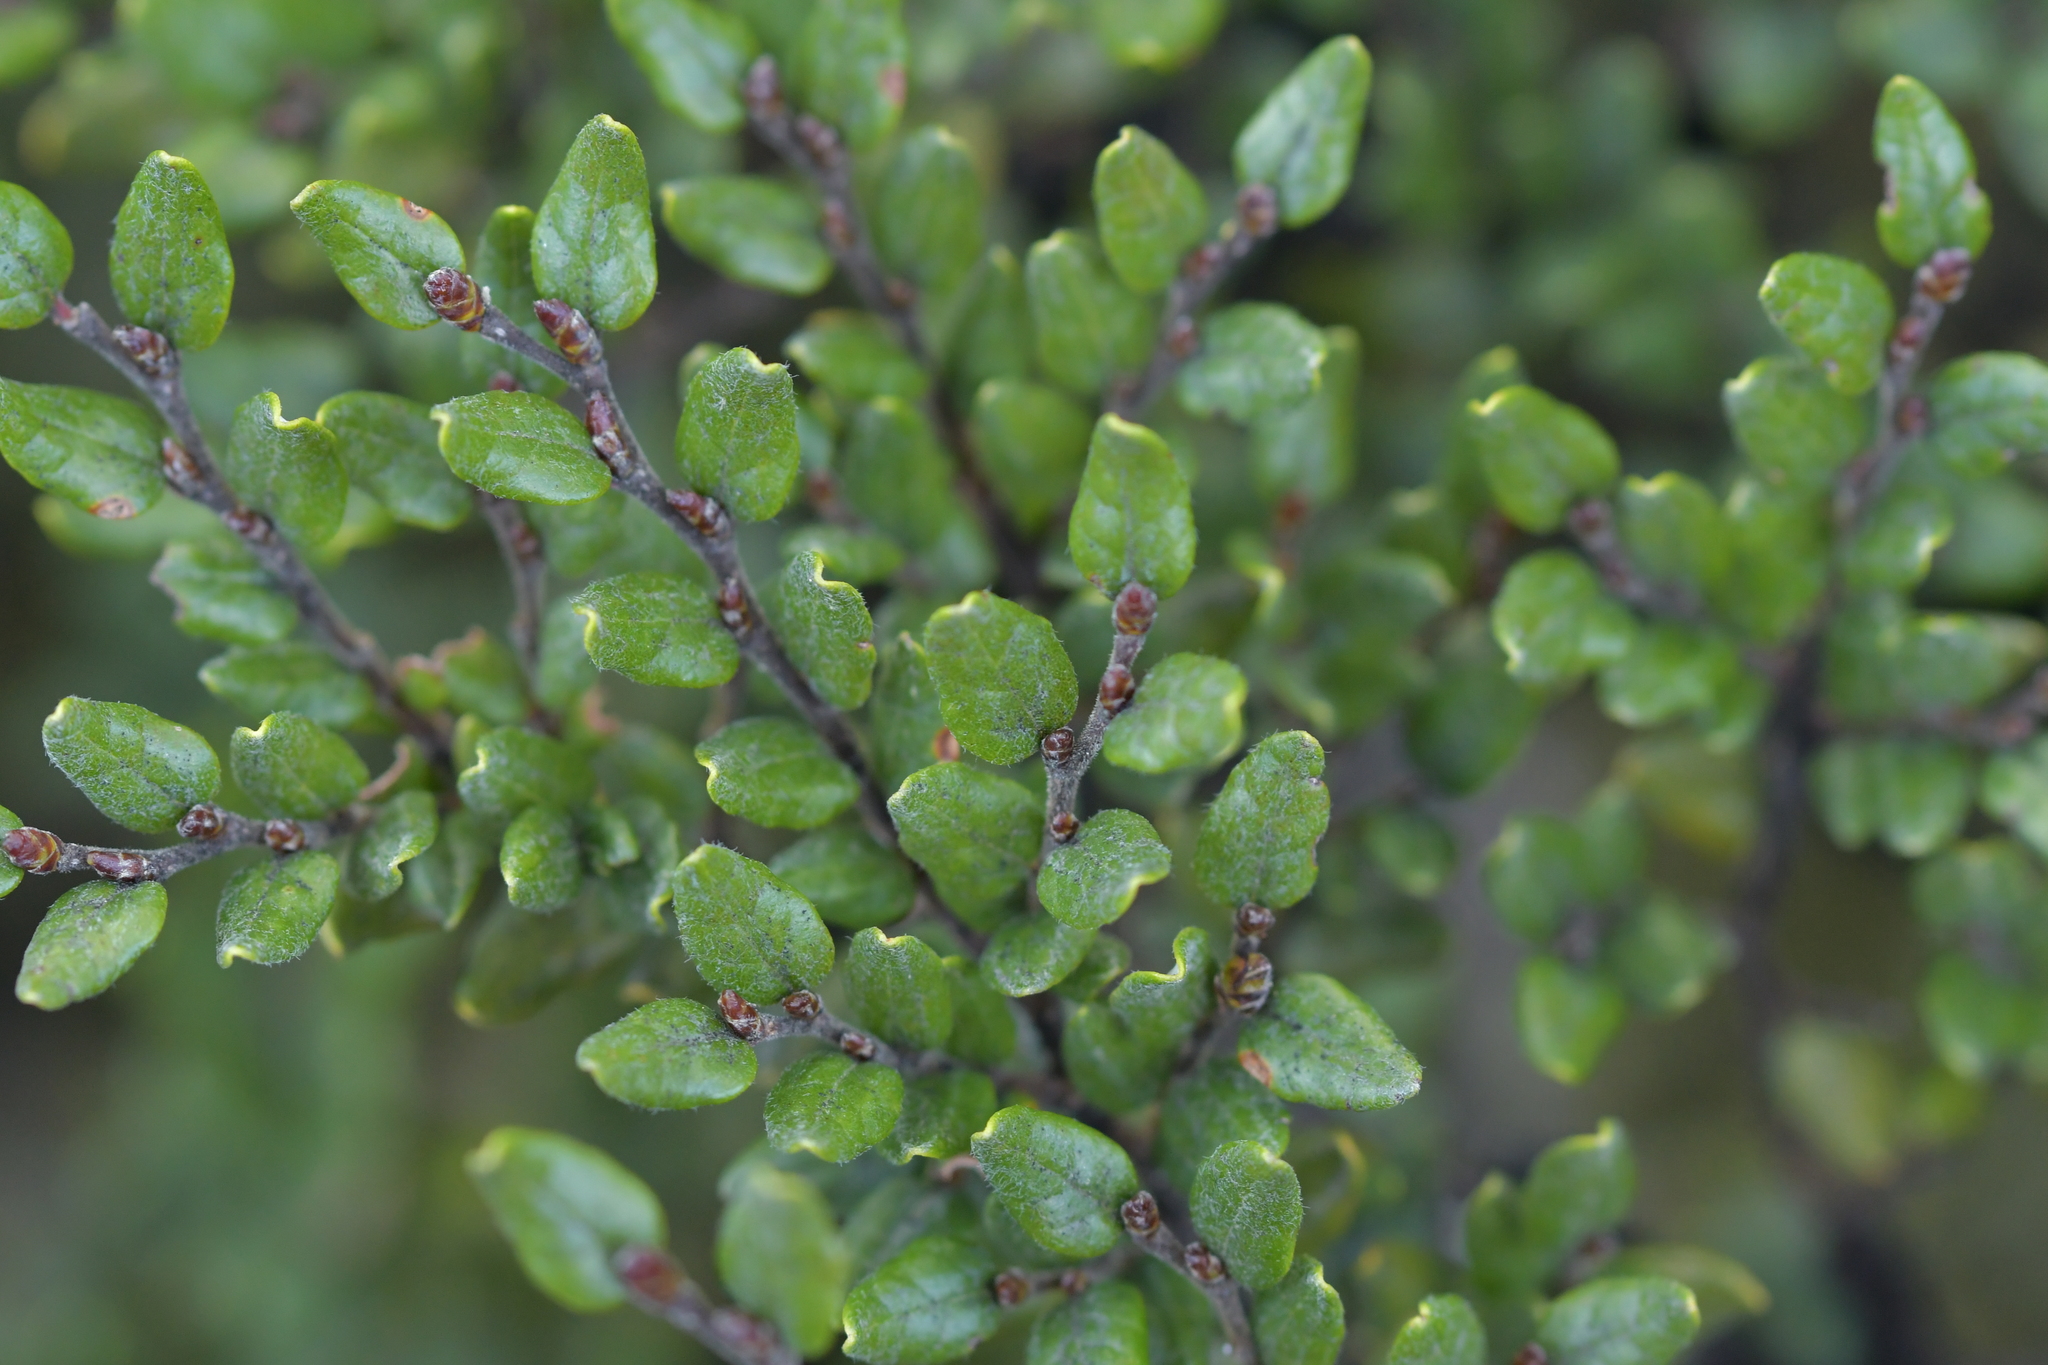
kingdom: Plantae
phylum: Tracheophyta
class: Magnoliopsida
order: Fagales
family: Nothofagaceae
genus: Nothofagus
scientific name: Nothofagus cliffortioides
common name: Mountain beech
